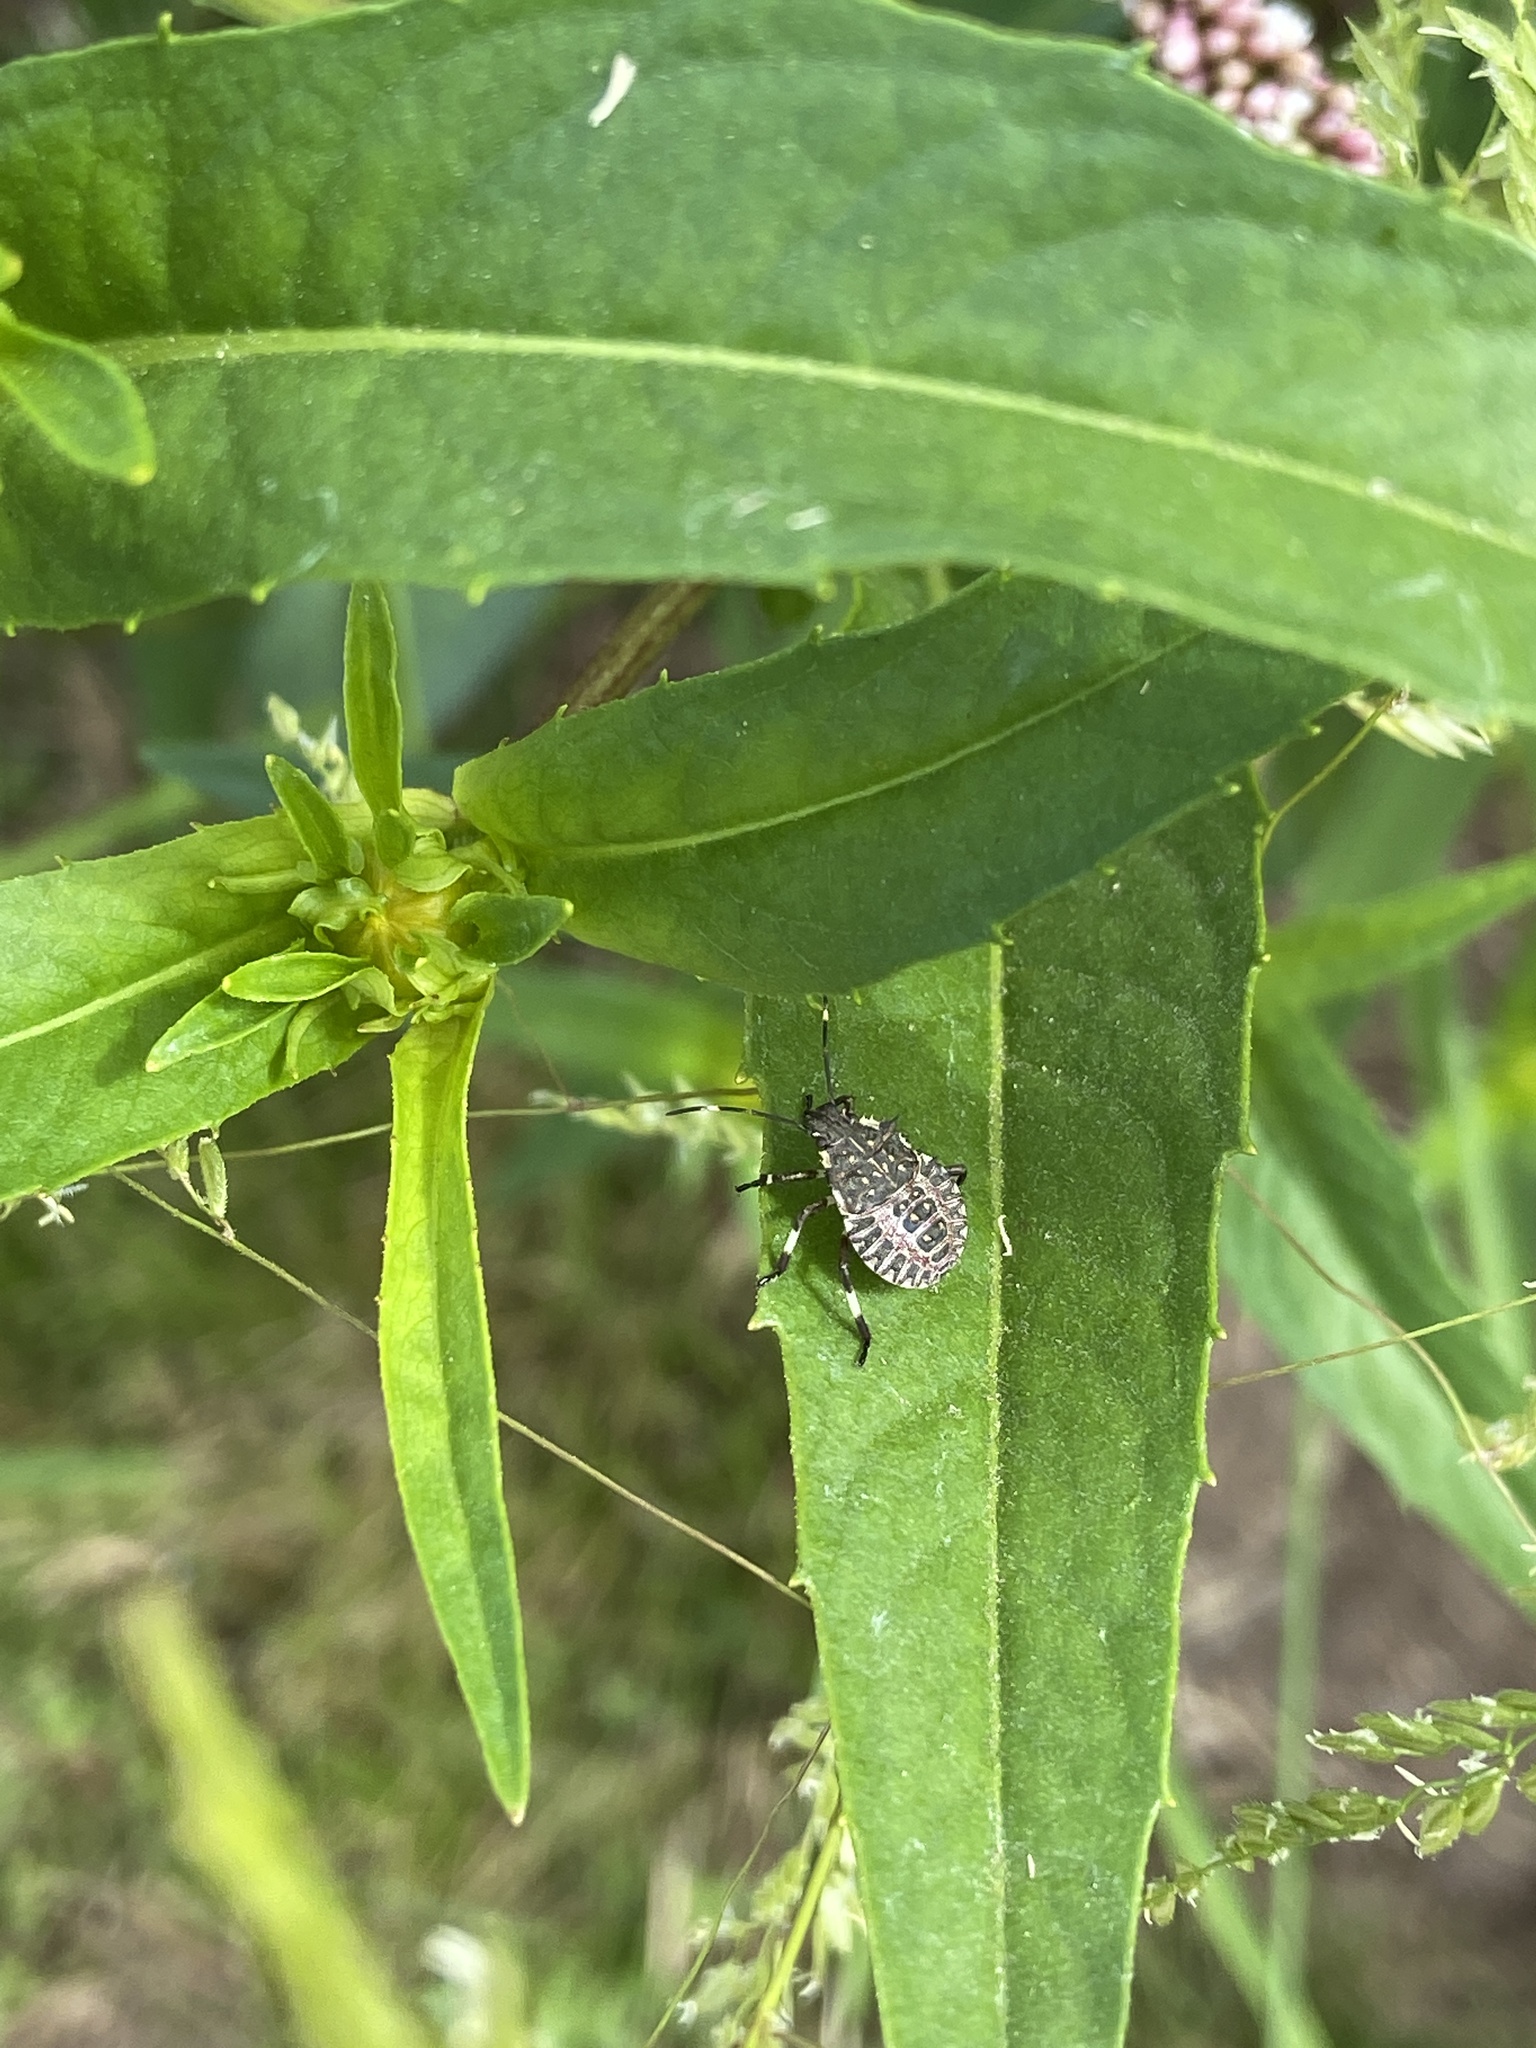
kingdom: Animalia
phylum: Arthropoda
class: Insecta
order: Hemiptera
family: Pentatomidae
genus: Halyomorpha
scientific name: Halyomorpha halys
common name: Brown marmorated stink bug
